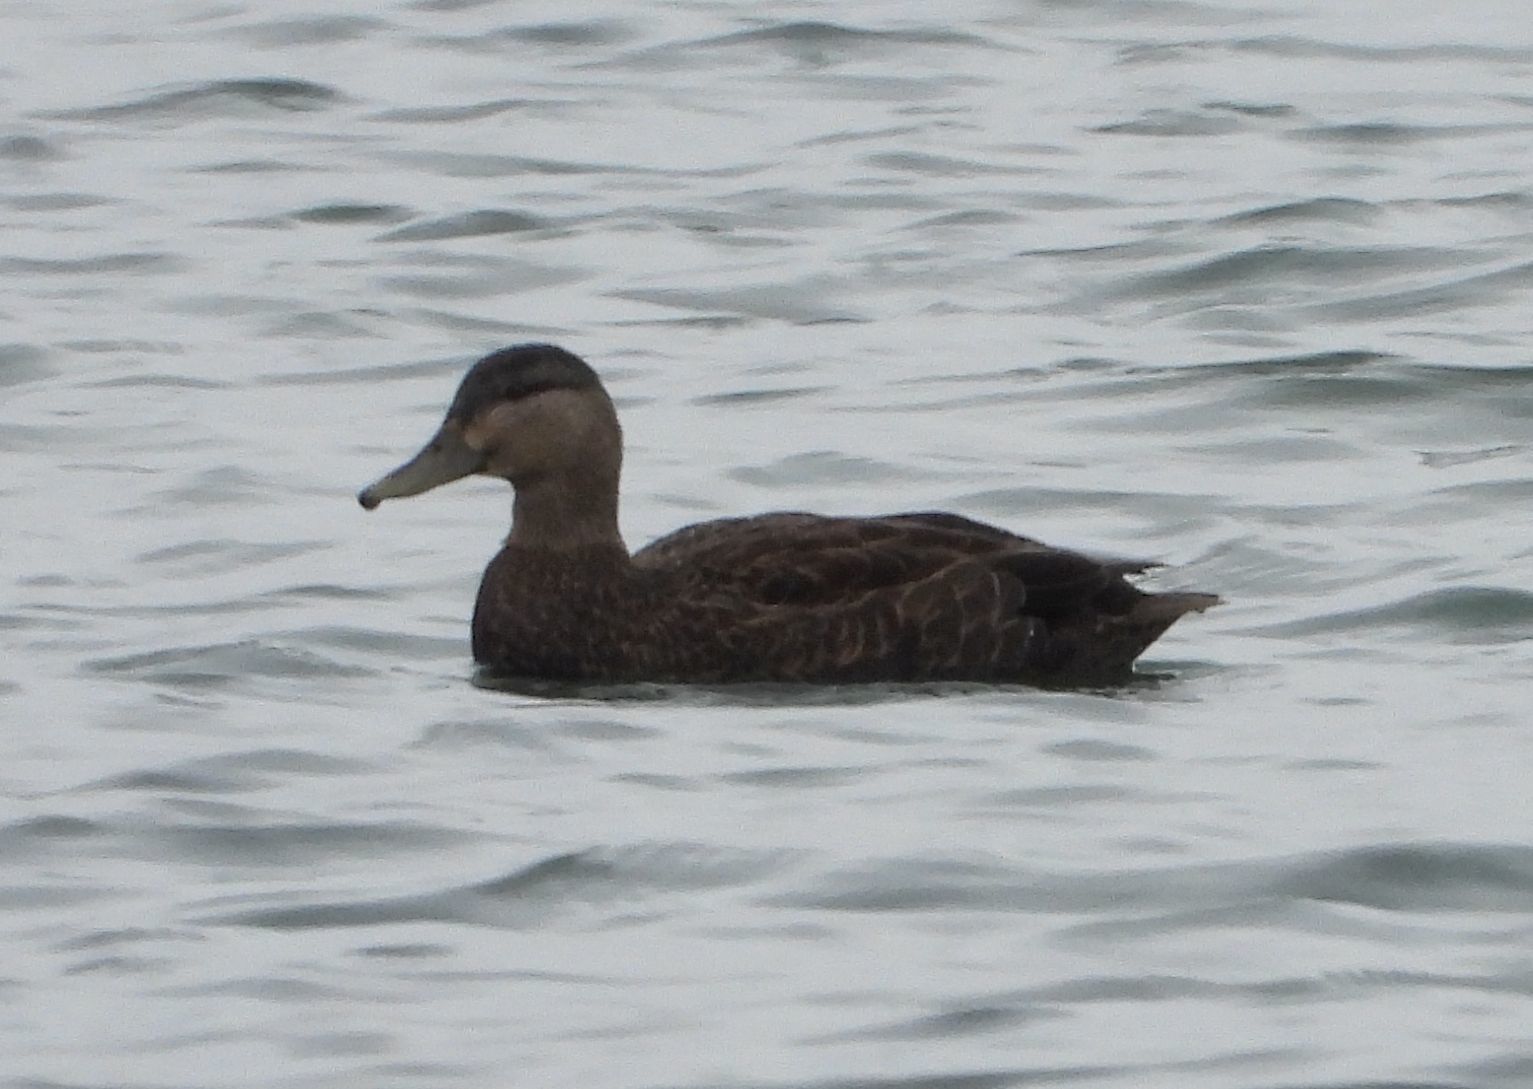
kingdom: Animalia
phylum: Chordata
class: Aves
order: Anseriformes
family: Anatidae
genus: Anas
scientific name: Anas rubripes
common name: American black duck
